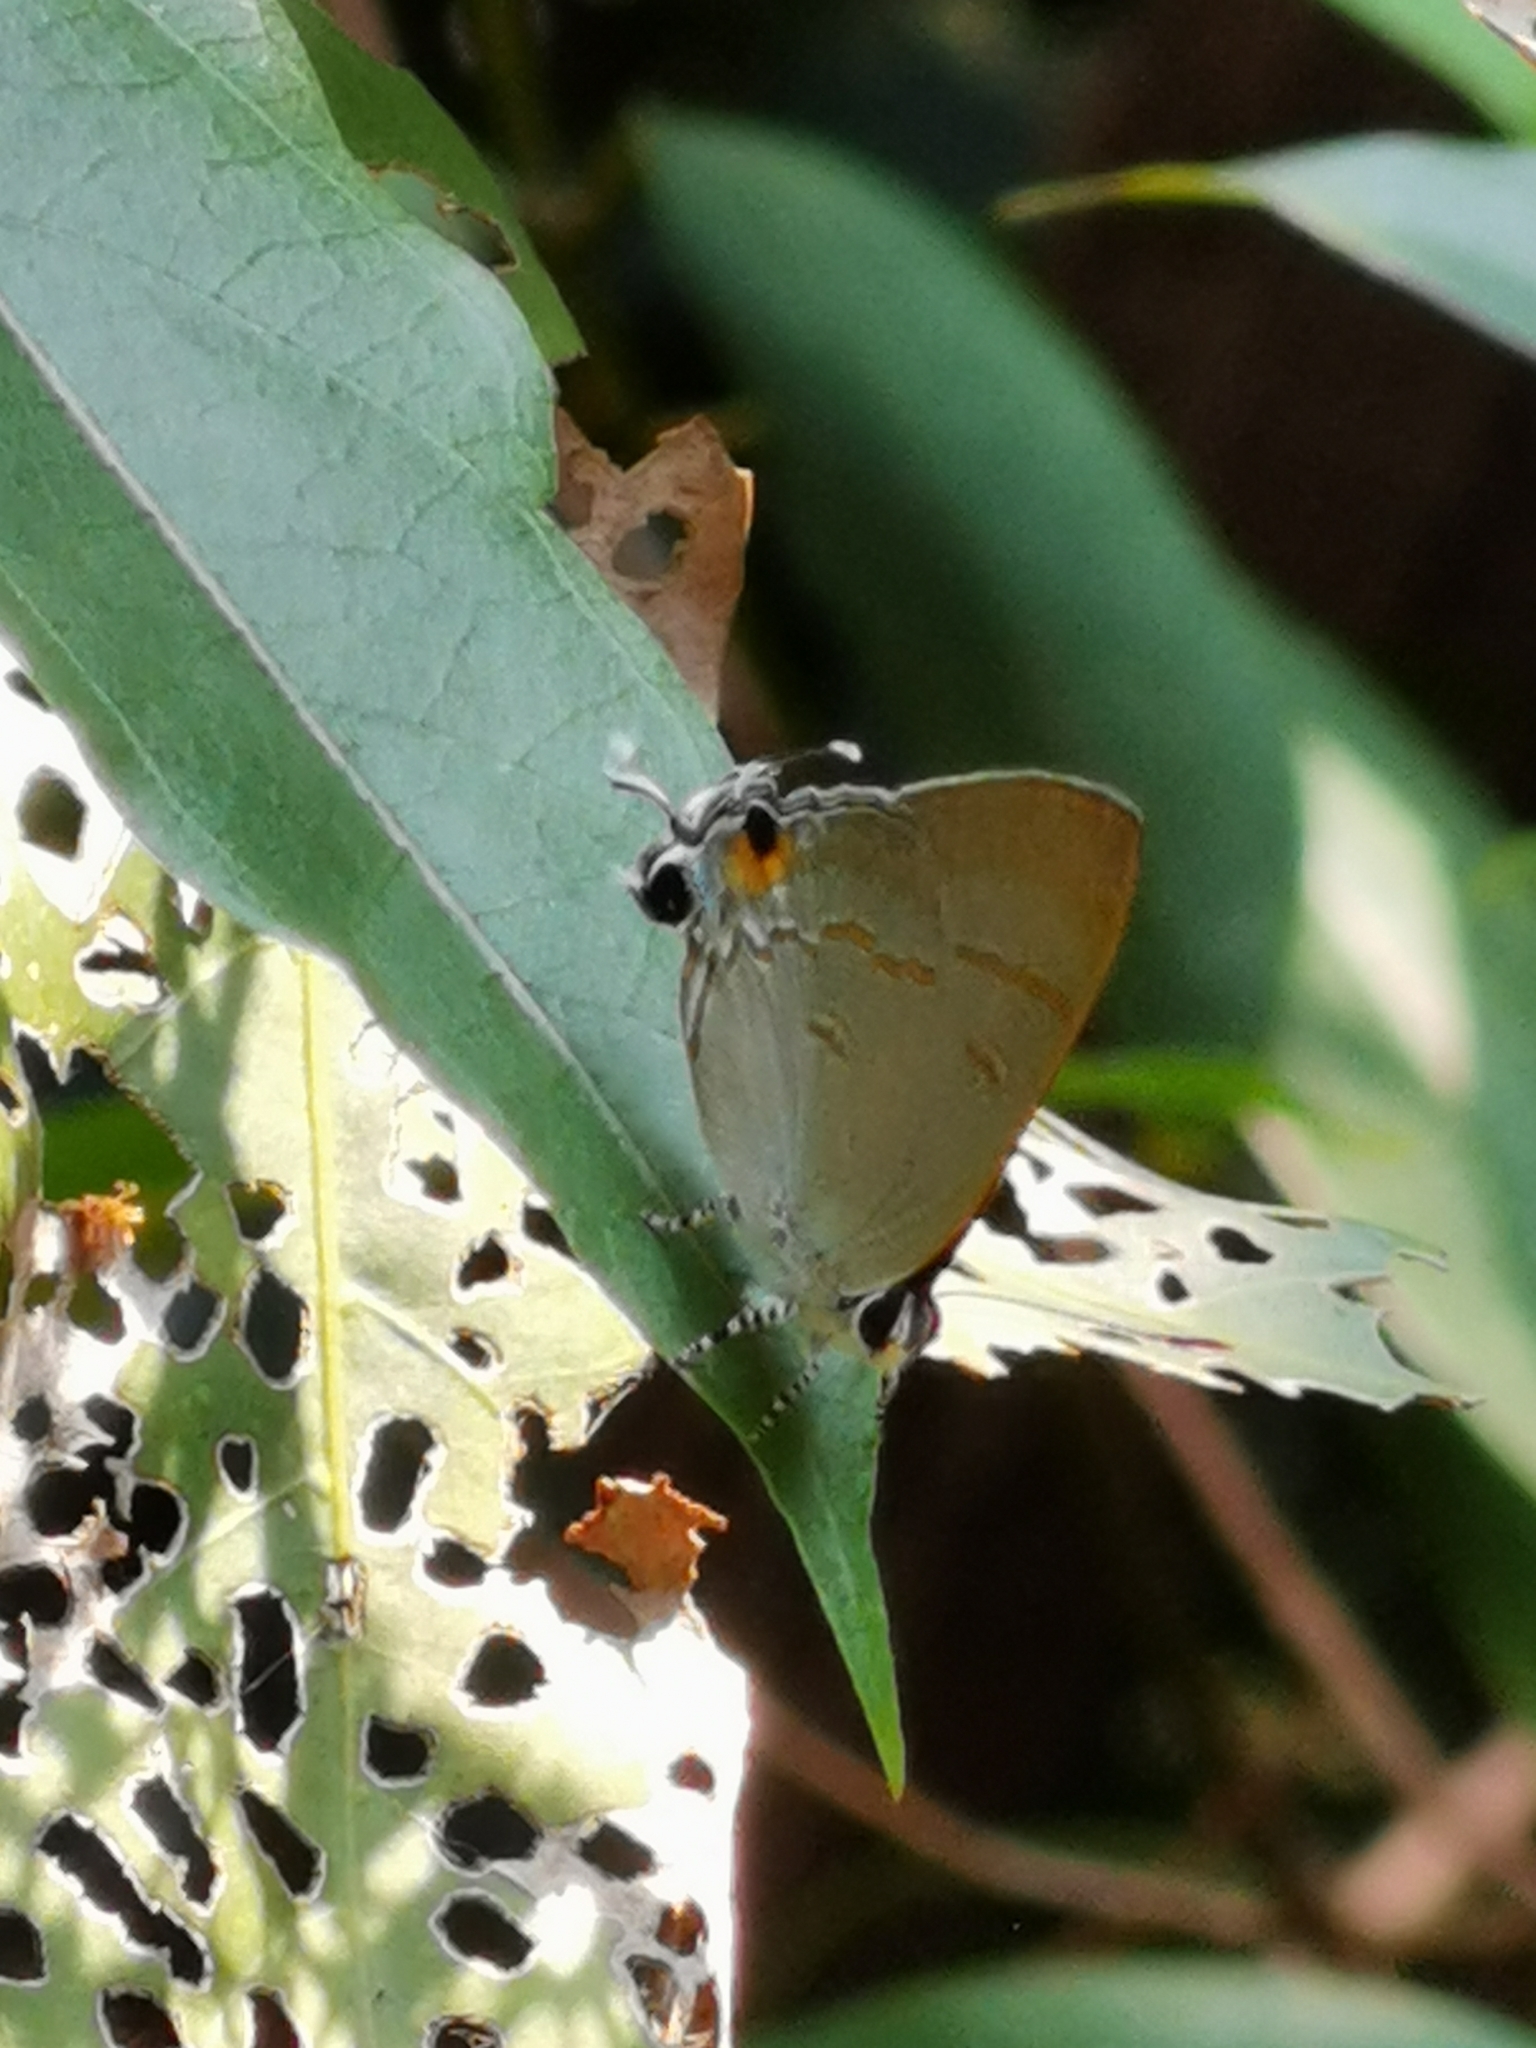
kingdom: Animalia
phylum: Arthropoda
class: Insecta
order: Lepidoptera
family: Lycaenidae
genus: Hypolycaena
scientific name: Hypolycaena erylus
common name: Common tit
